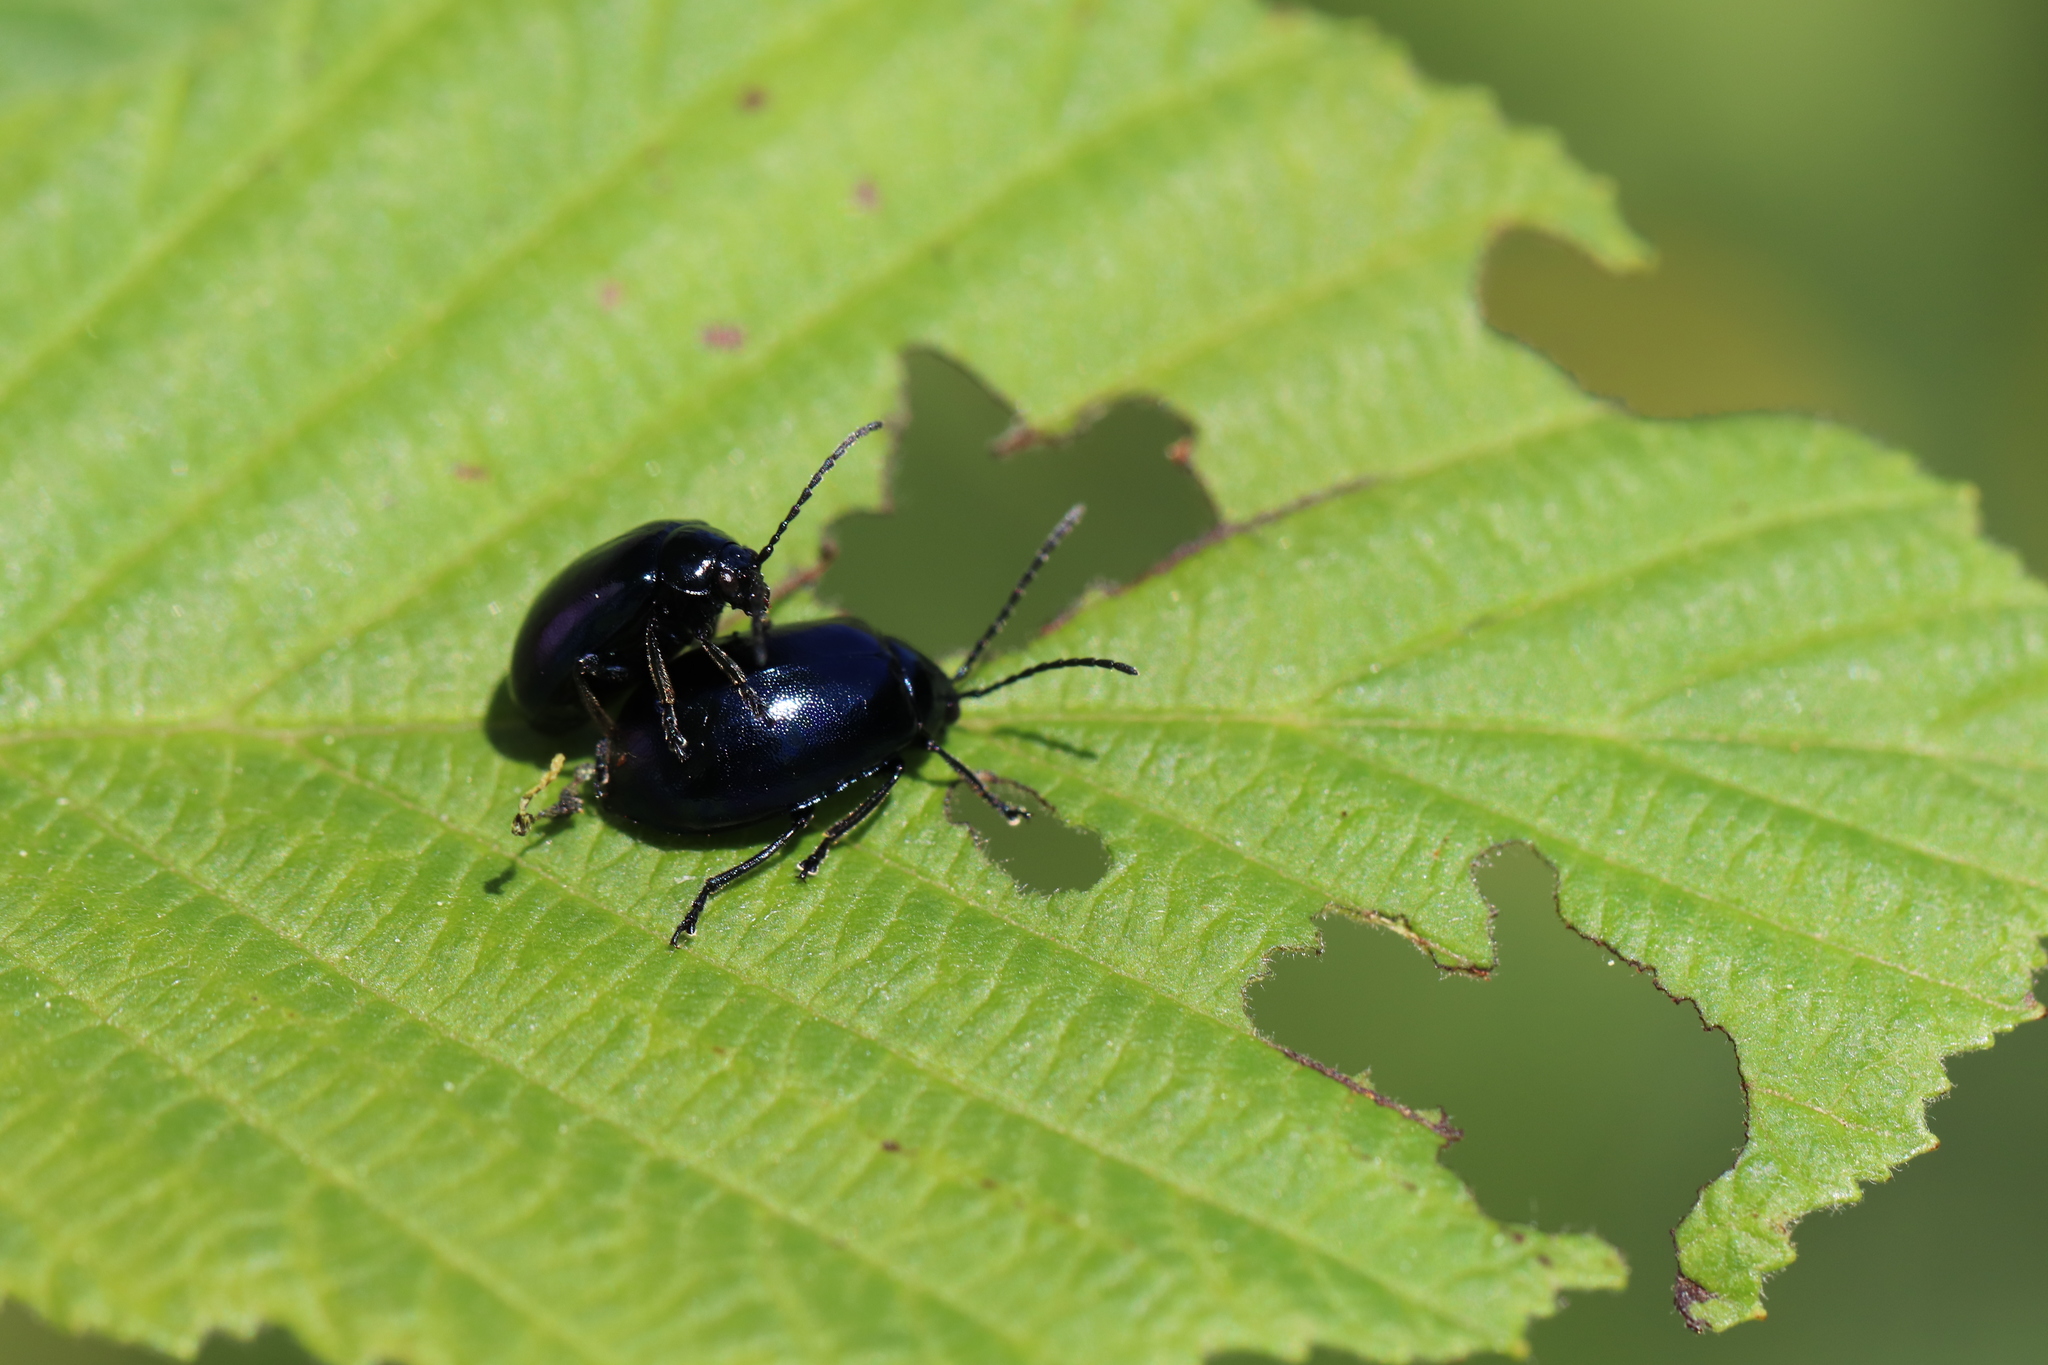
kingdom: Animalia
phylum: Arthropoda
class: Insecta
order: Coleoptera
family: Chrysomelidae
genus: Agelastica
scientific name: Agelastica alni
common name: Alder leaf beetle
